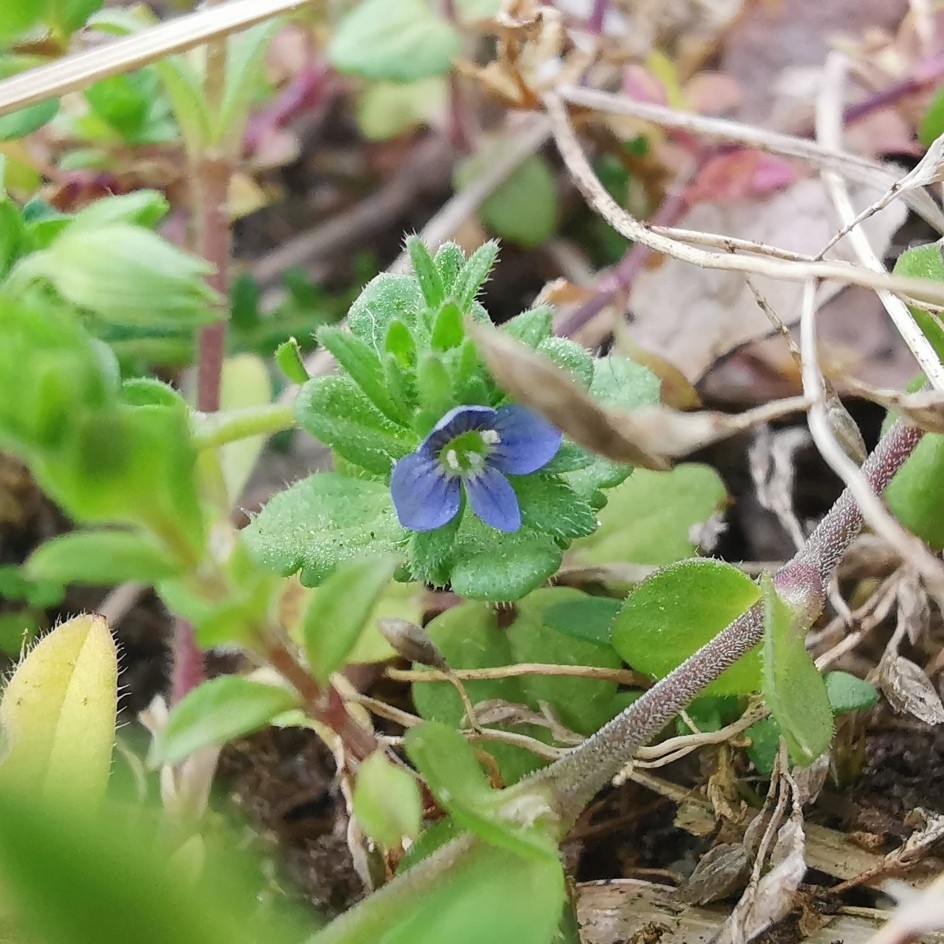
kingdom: Plantae
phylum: Tracheophyta
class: Magnoliopsida
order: Lamiales
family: Plantaginaceae
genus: Veronica
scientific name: Veronica arvensis
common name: Corn speedwell
